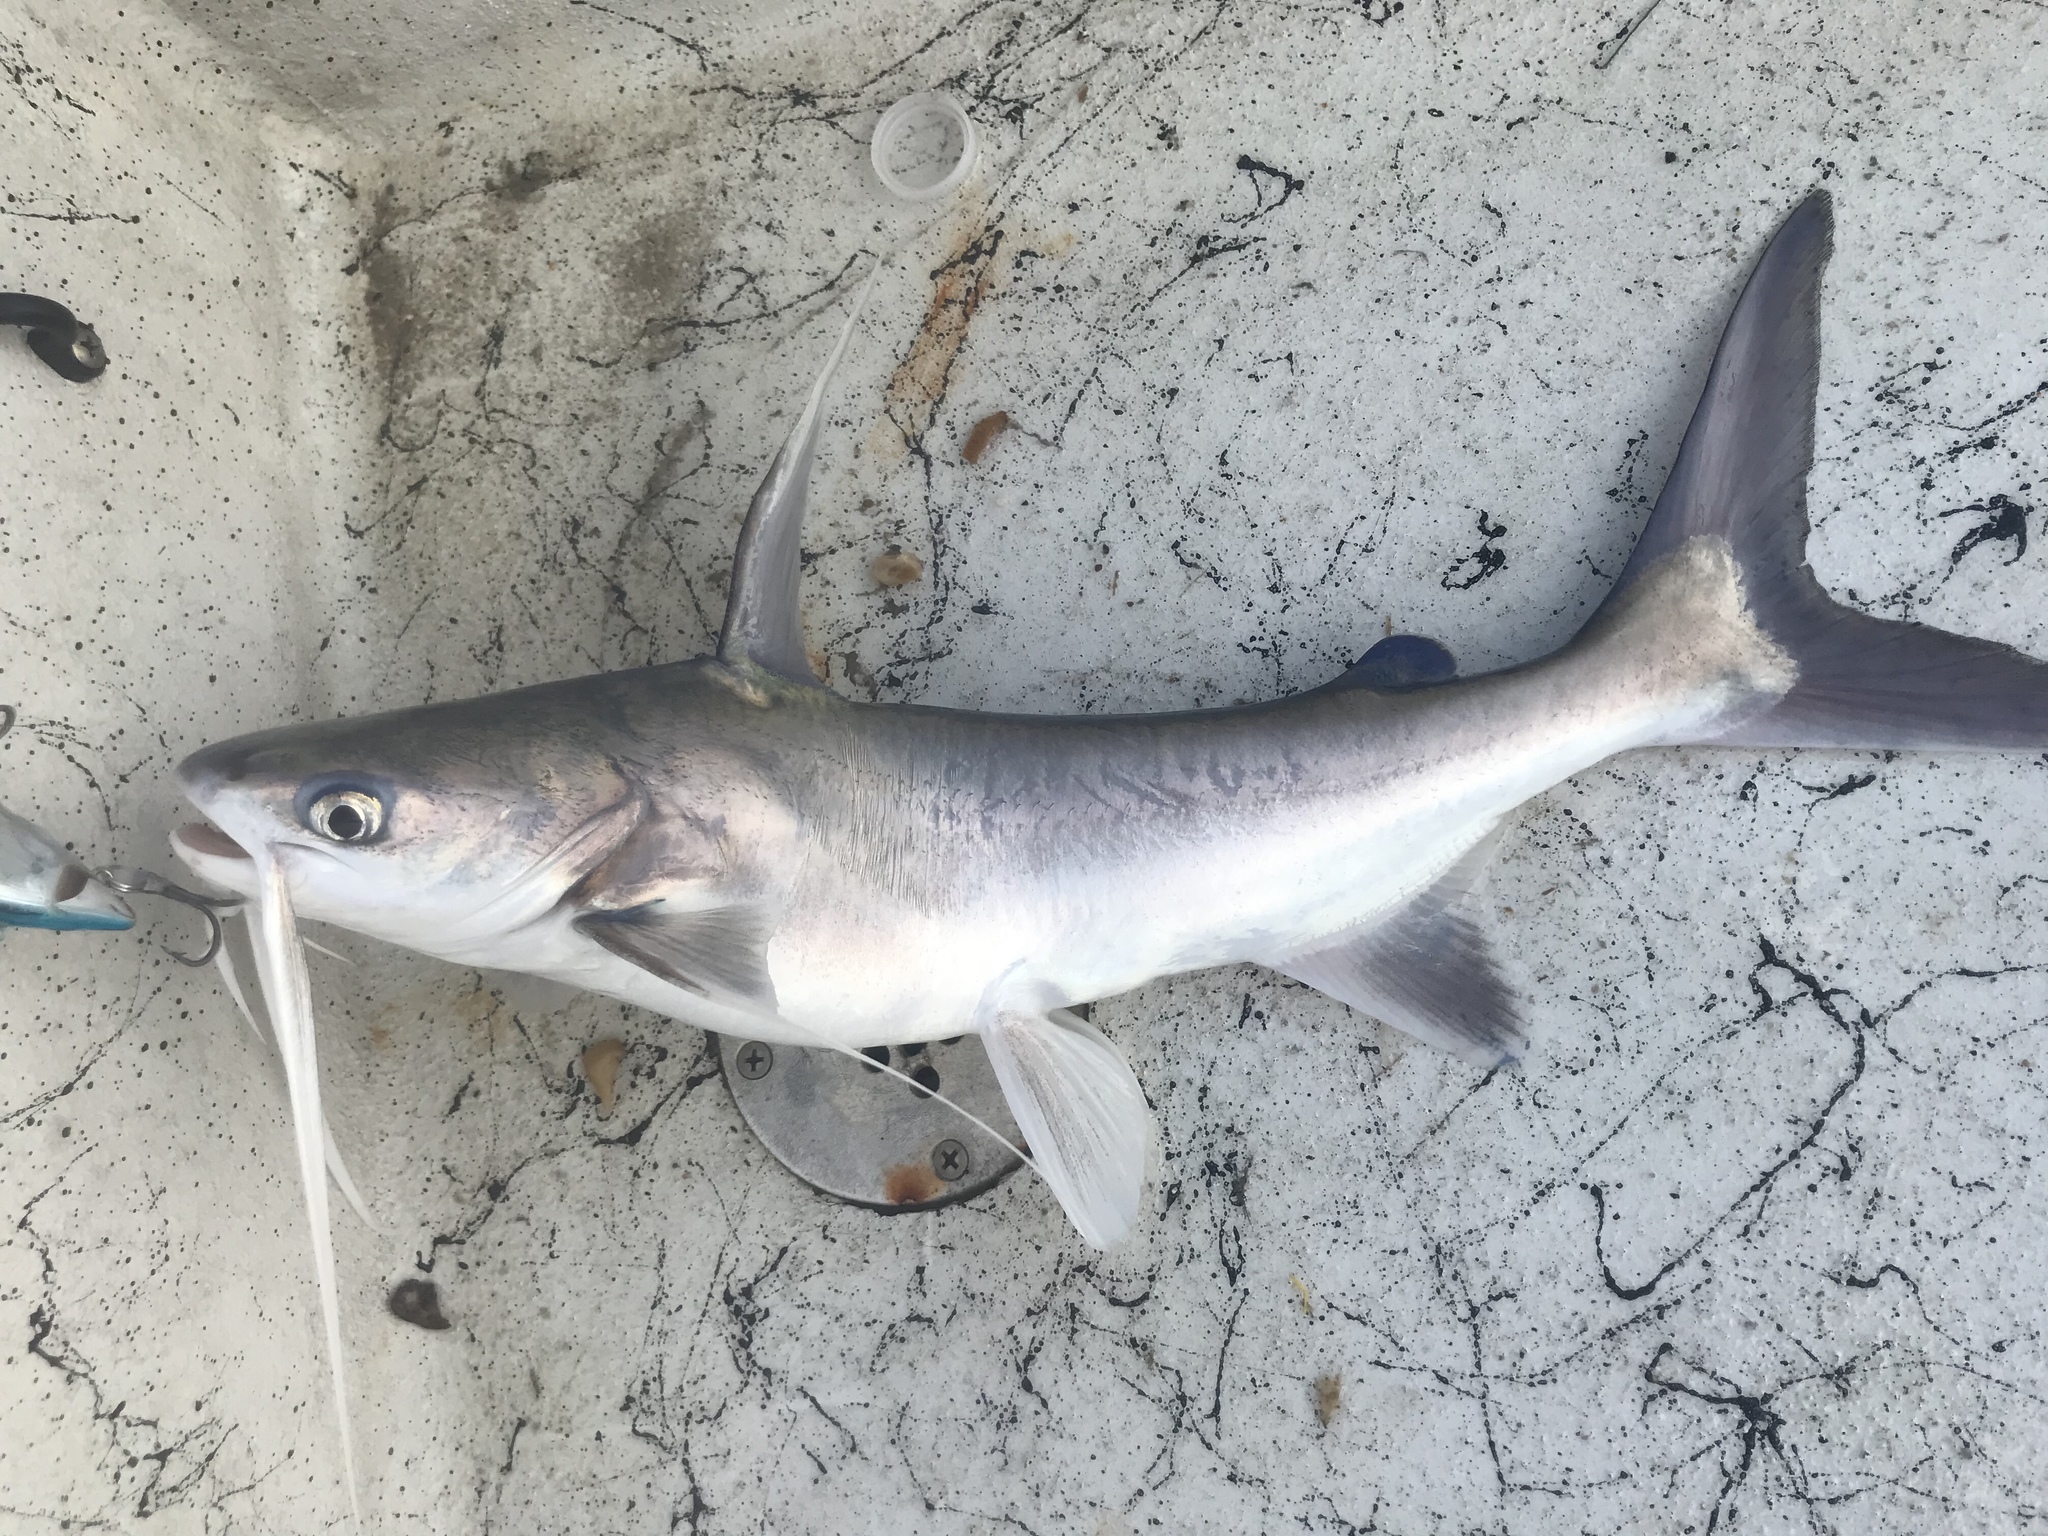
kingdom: Animalia
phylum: Chordata
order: Siluriformes
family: Ariidae
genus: Bagre
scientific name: Bagre marinus
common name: Gafftopsail sea catfish
